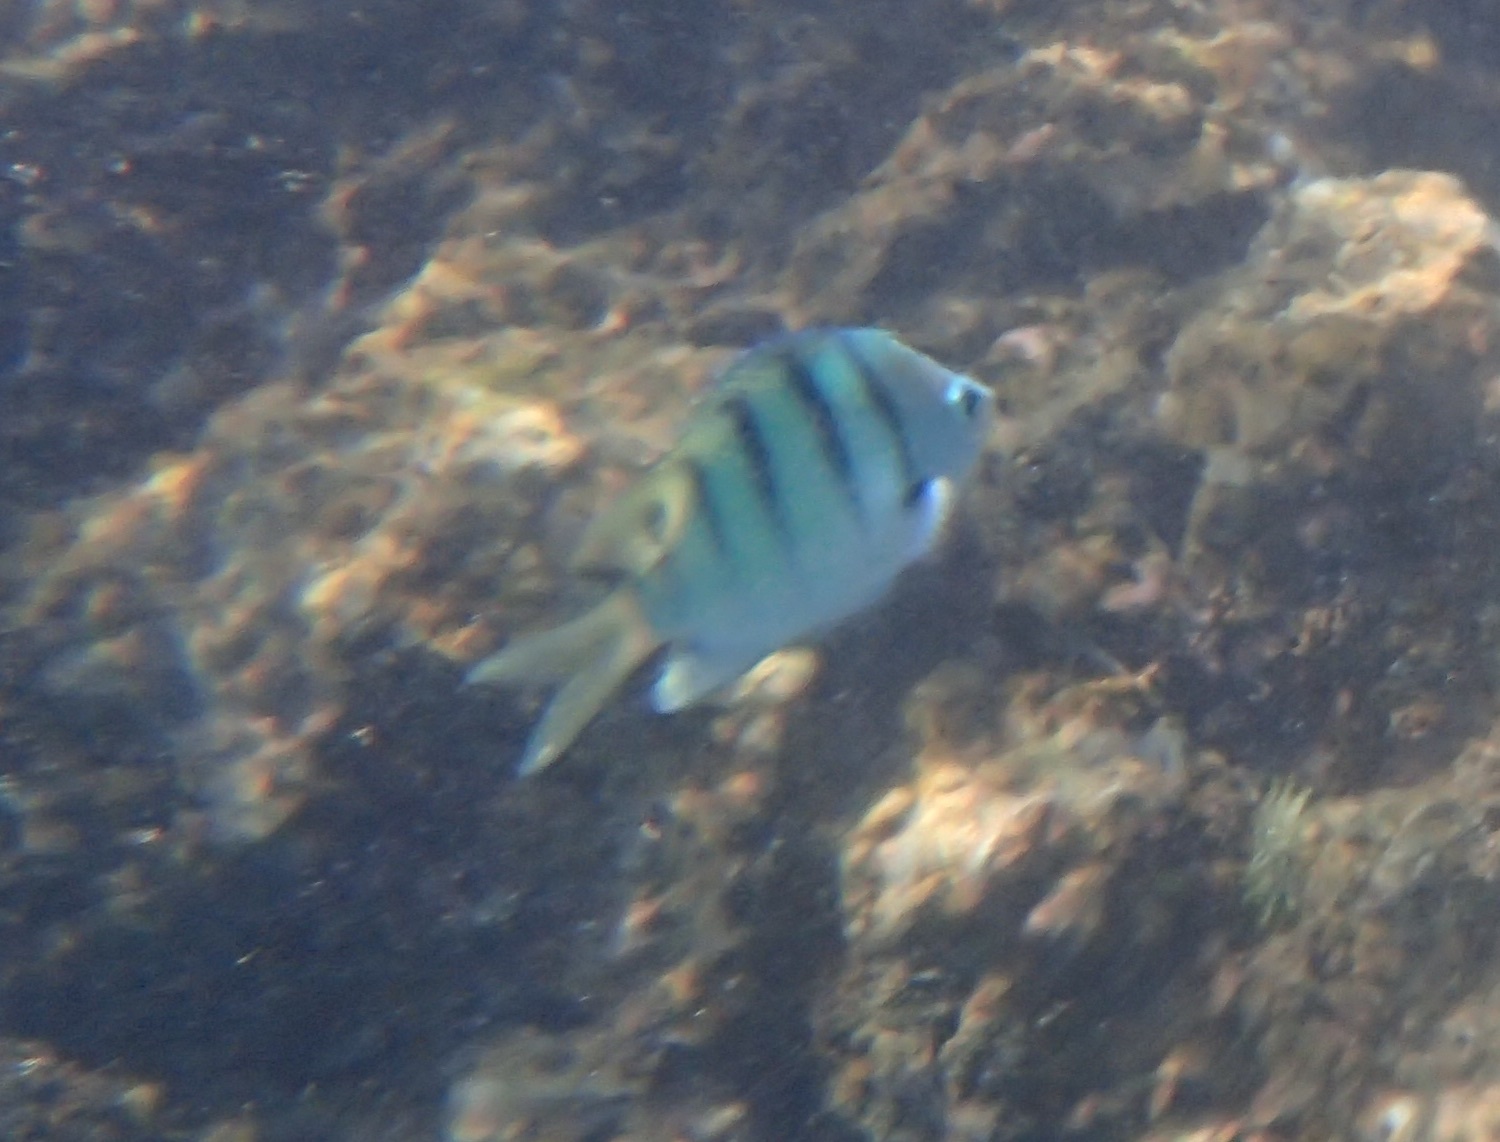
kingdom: Animalia
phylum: Chordata
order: Perciformes
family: Pomacentridae
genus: Abudefduf
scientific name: Abudefduf abdominalis
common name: Green damselfish
